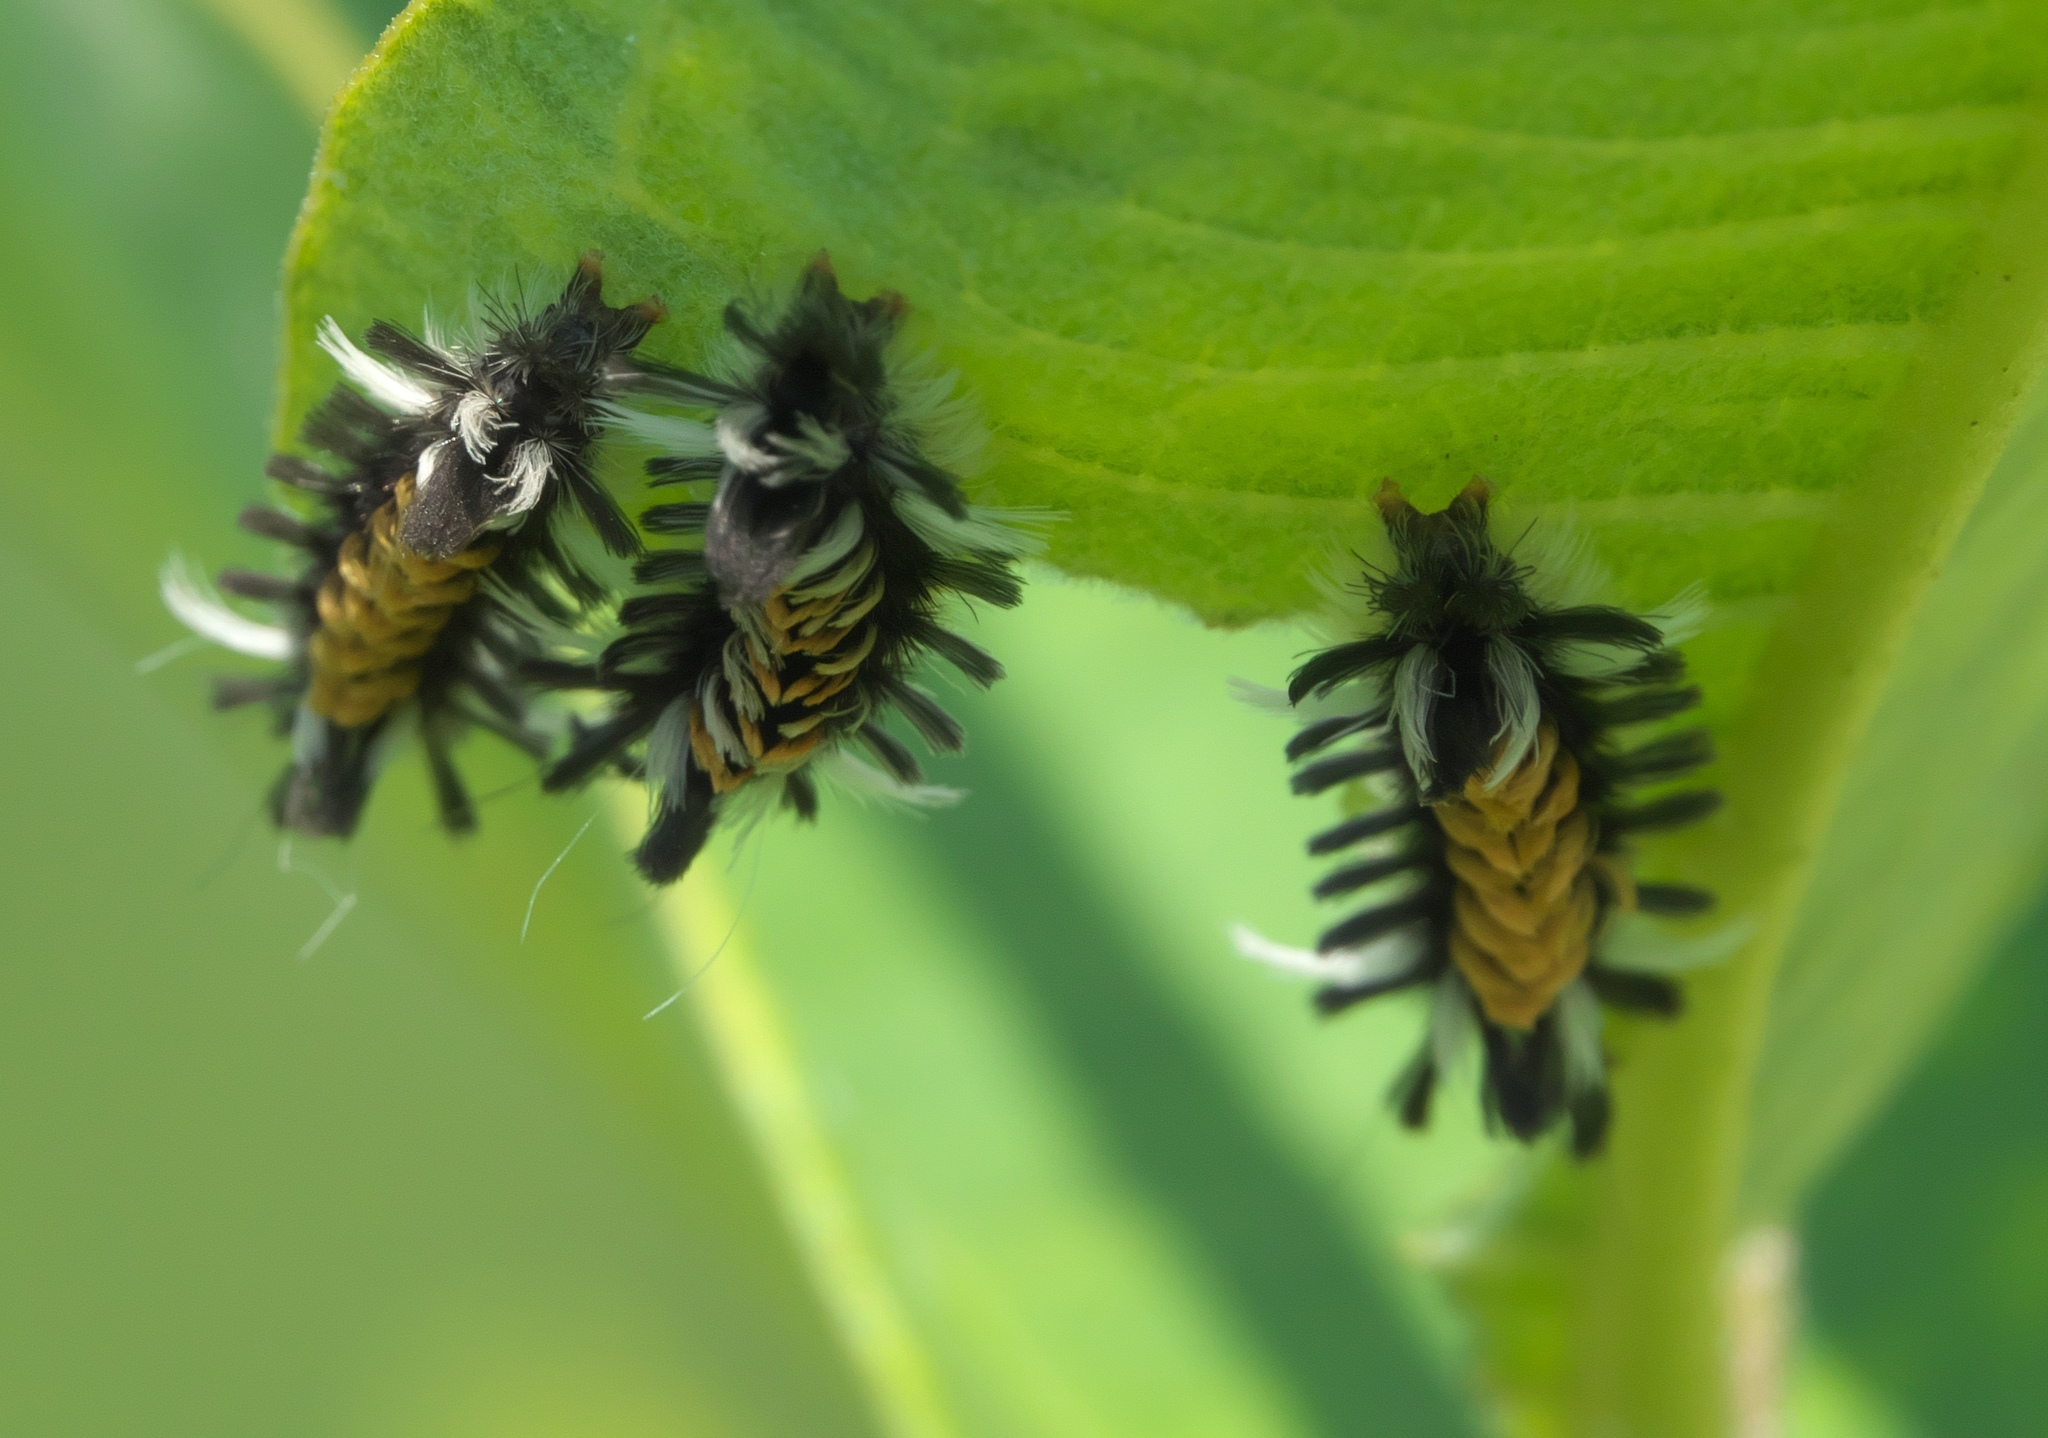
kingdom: Animalia
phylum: Arthropoda
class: Insecta
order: Lepidoptera
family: Erebidae
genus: Euchaetes
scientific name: Euchaetes egle
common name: Milkweed tussock moth
